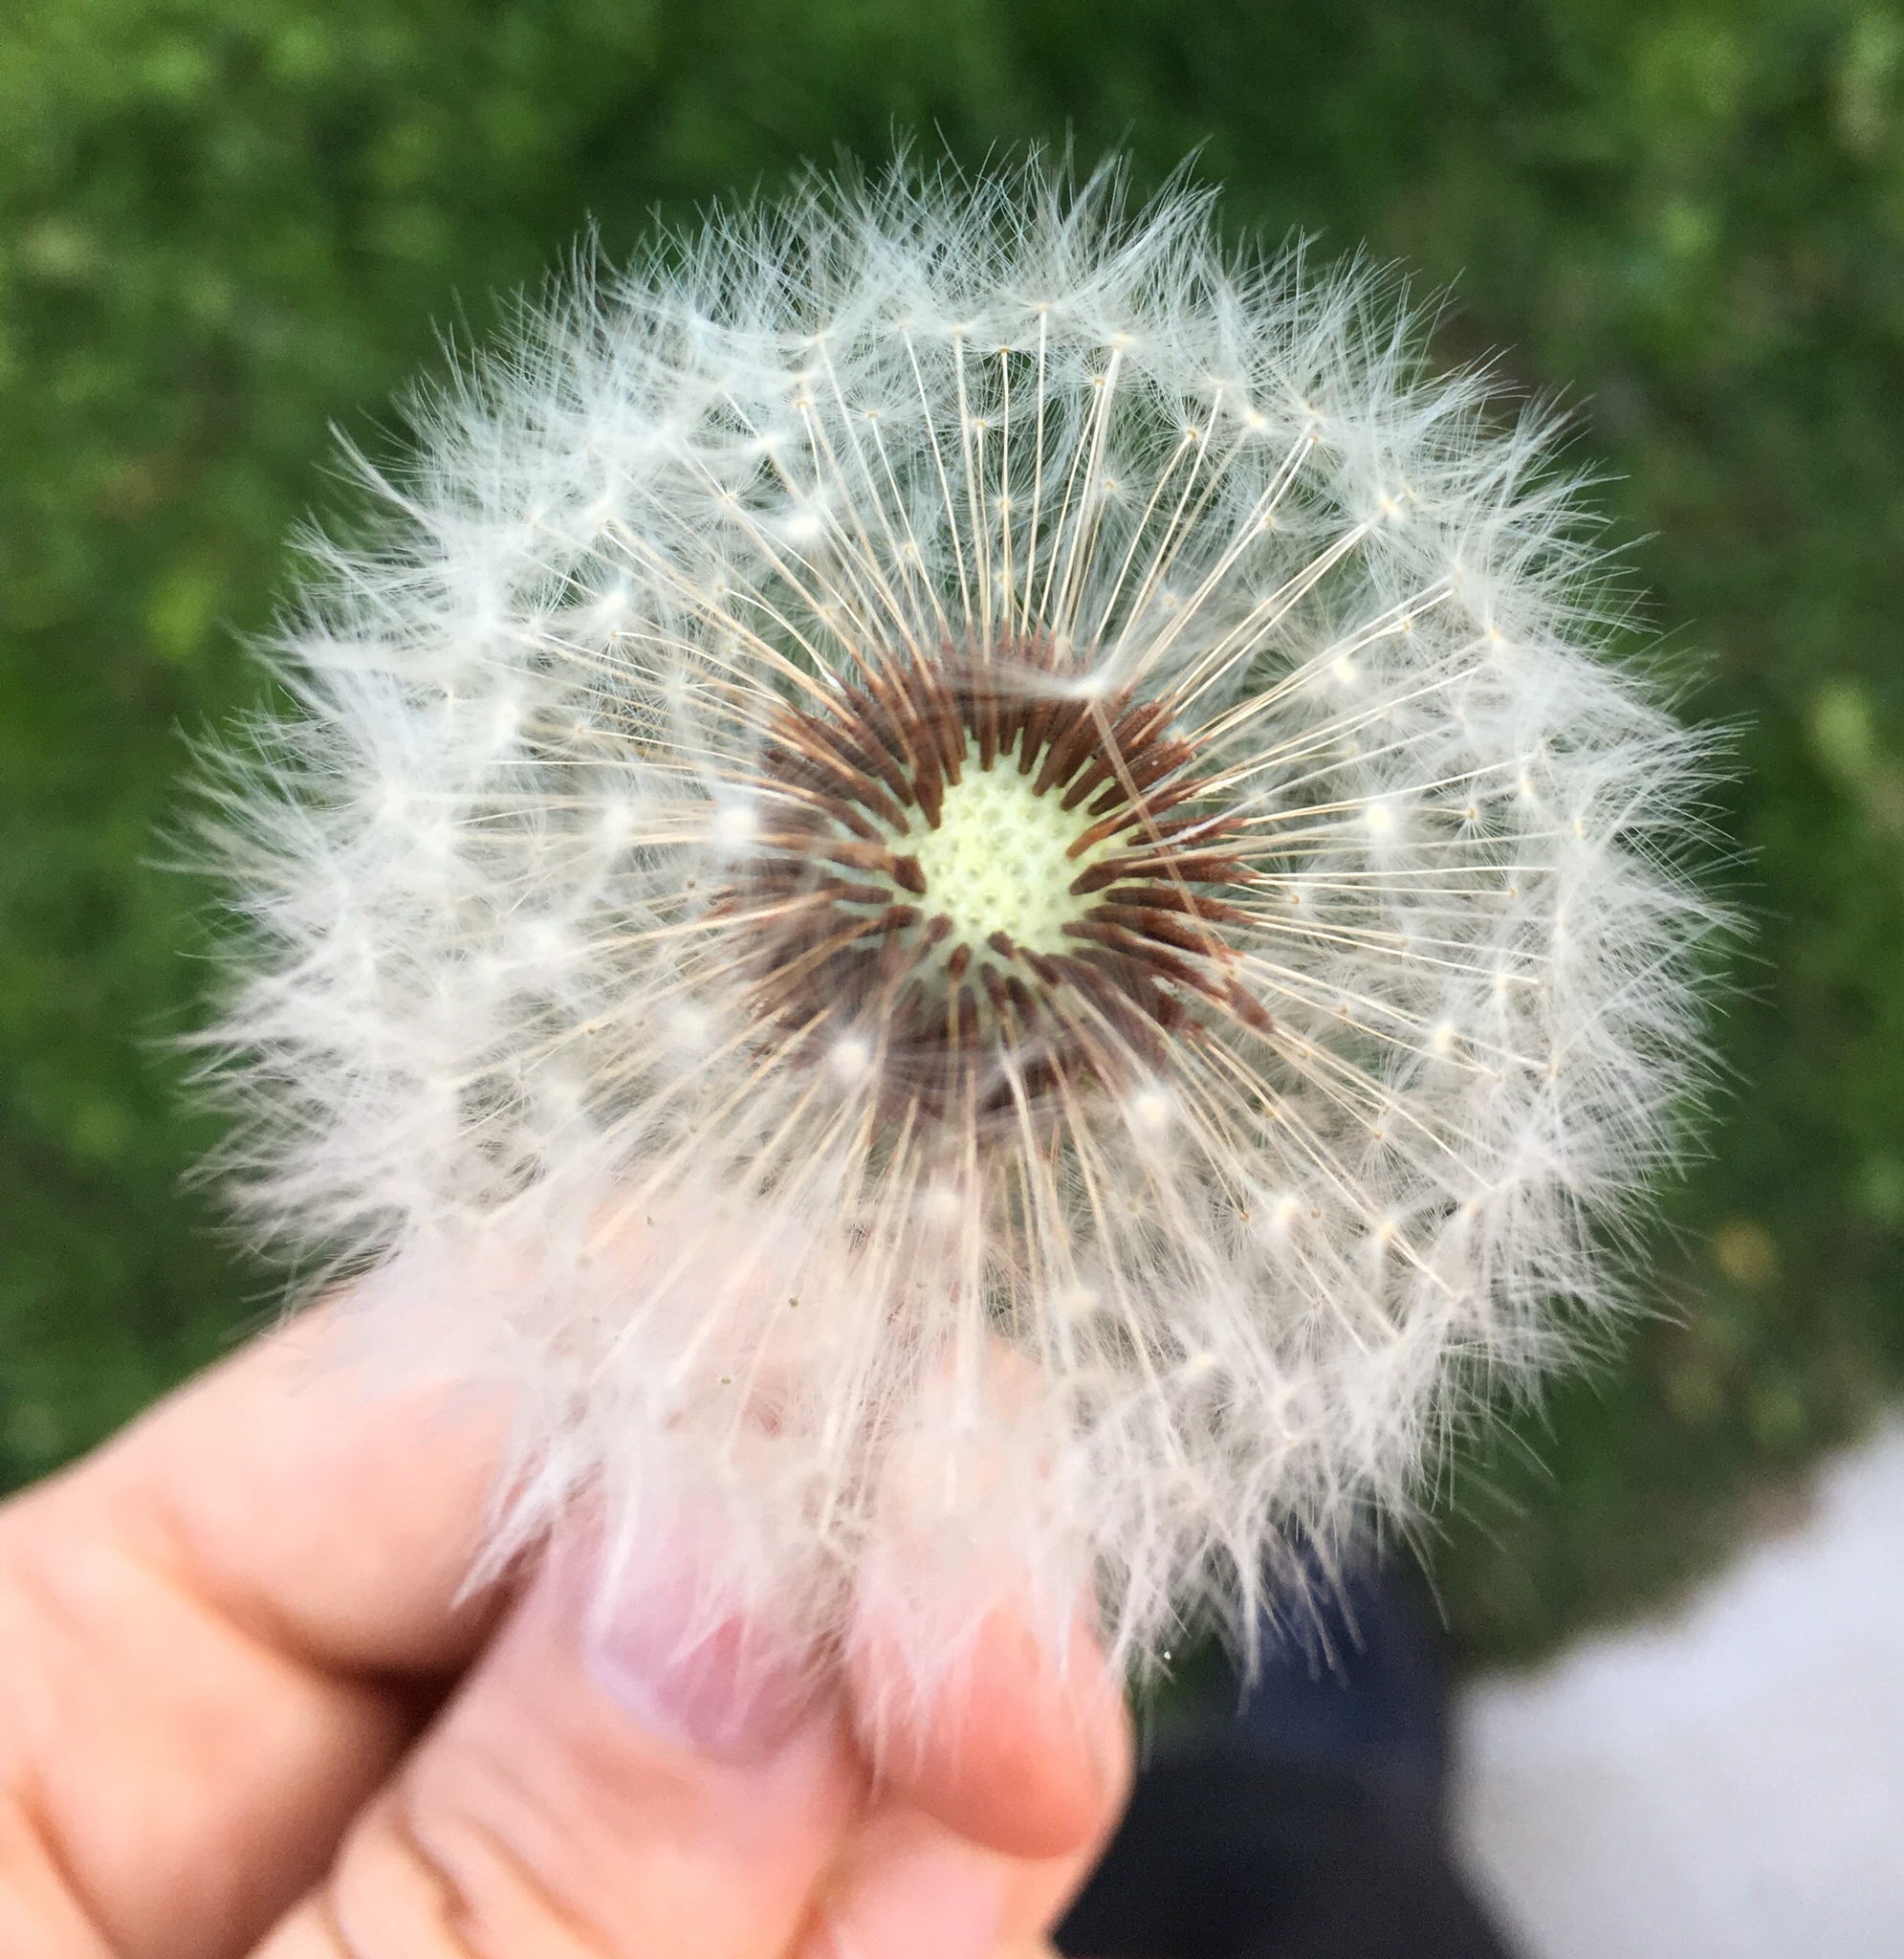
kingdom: Plantae
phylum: Tracheophyta
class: Magnoliopsida
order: Asterales
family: Asteraceae
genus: Taraxacum
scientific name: Taraxacum erythrospermum
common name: Rock dandelion
